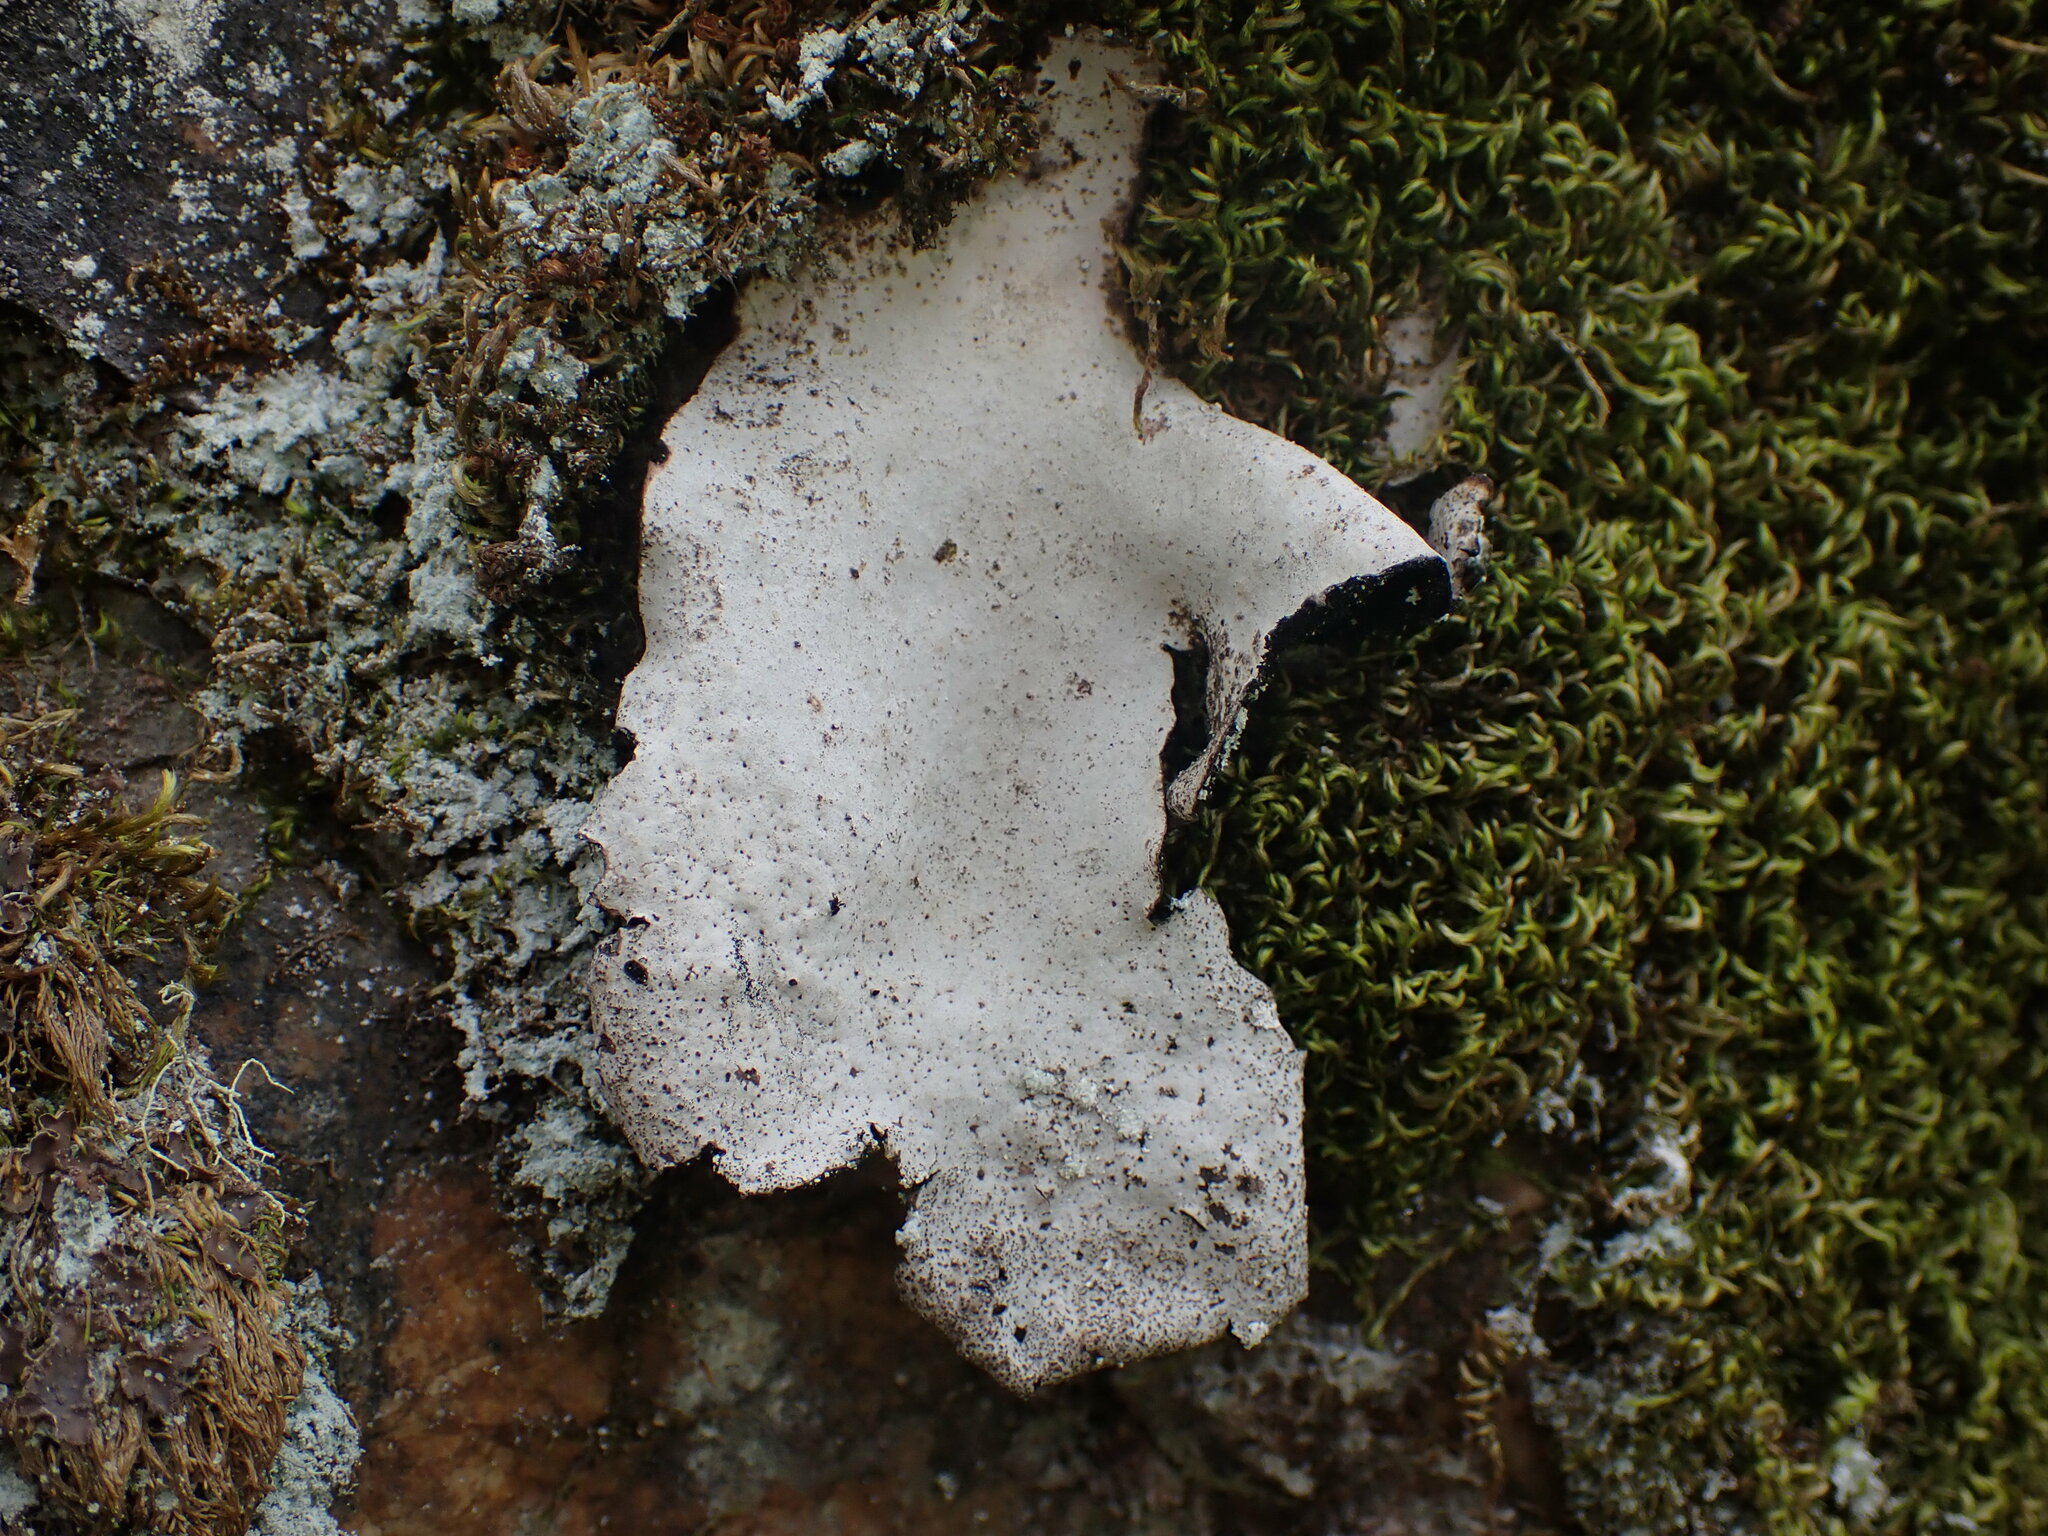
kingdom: Fungi
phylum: Ascomycota
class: Lecanoromycetes
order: Umbilicariales
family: Umbilicariaceae
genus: Umbilicaria
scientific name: Umbilicaria americana
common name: Frosted rock tripe
